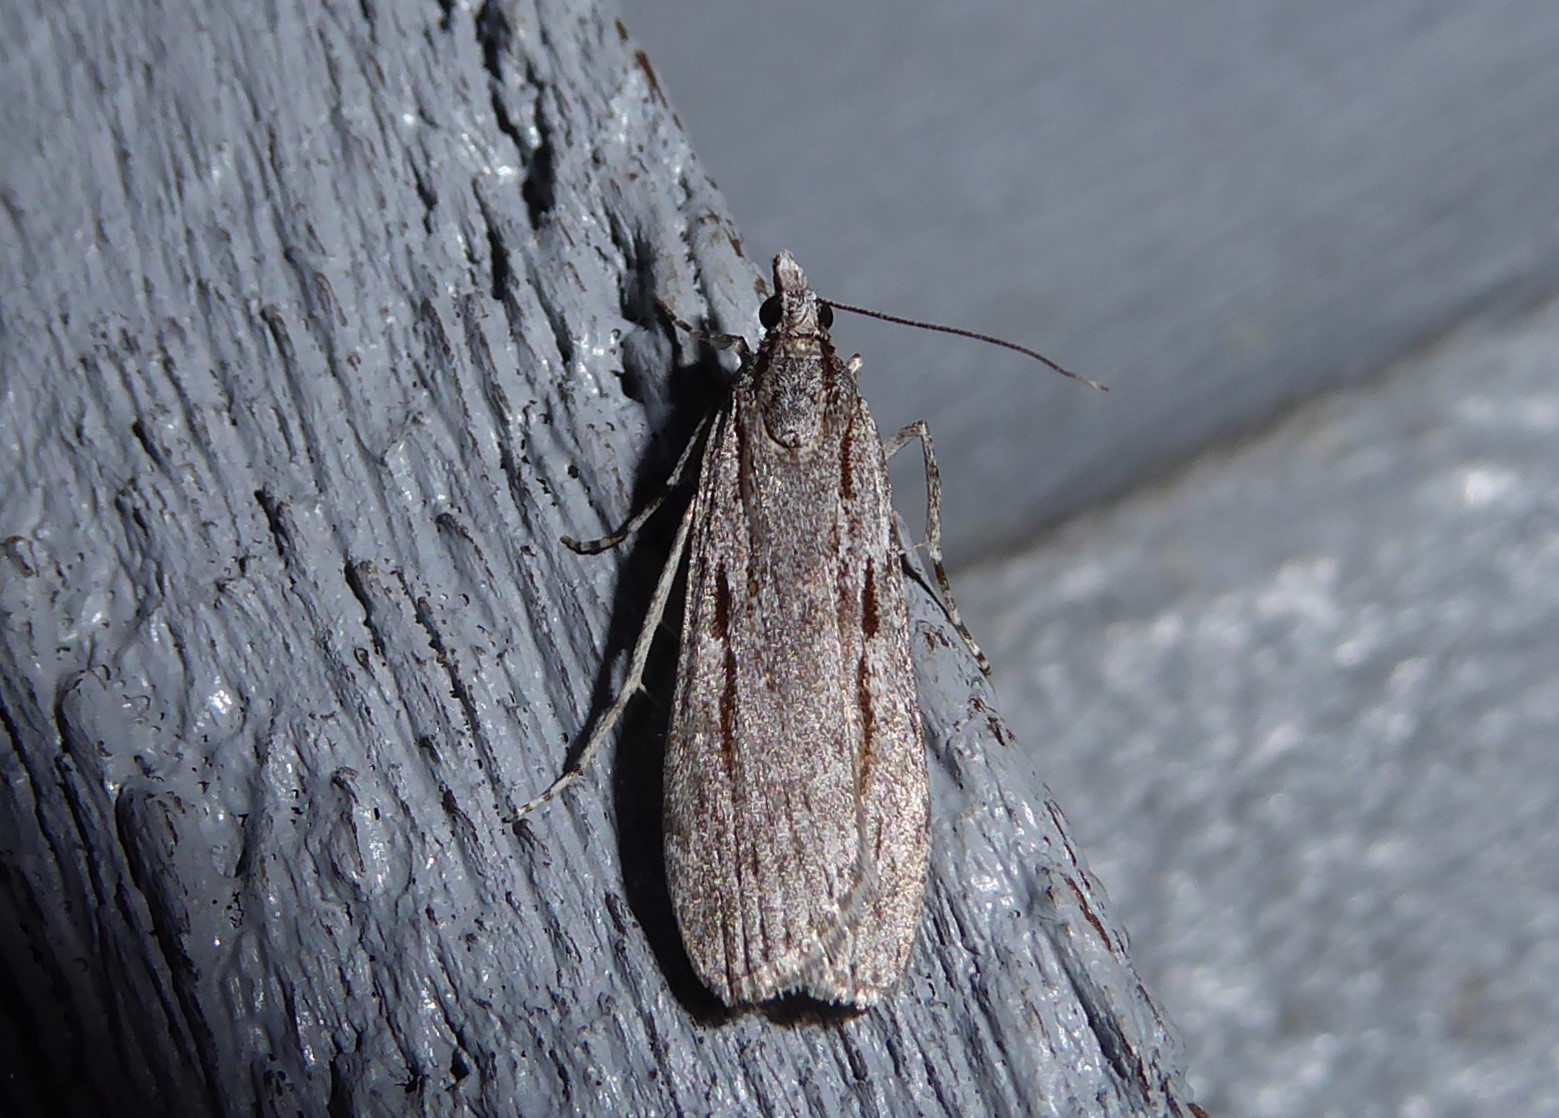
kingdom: Animalia
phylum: Arthropoda
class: Insecta
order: Lepidoptera
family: Crambidae
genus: Scoparia
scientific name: Scoparia indistinctalis
